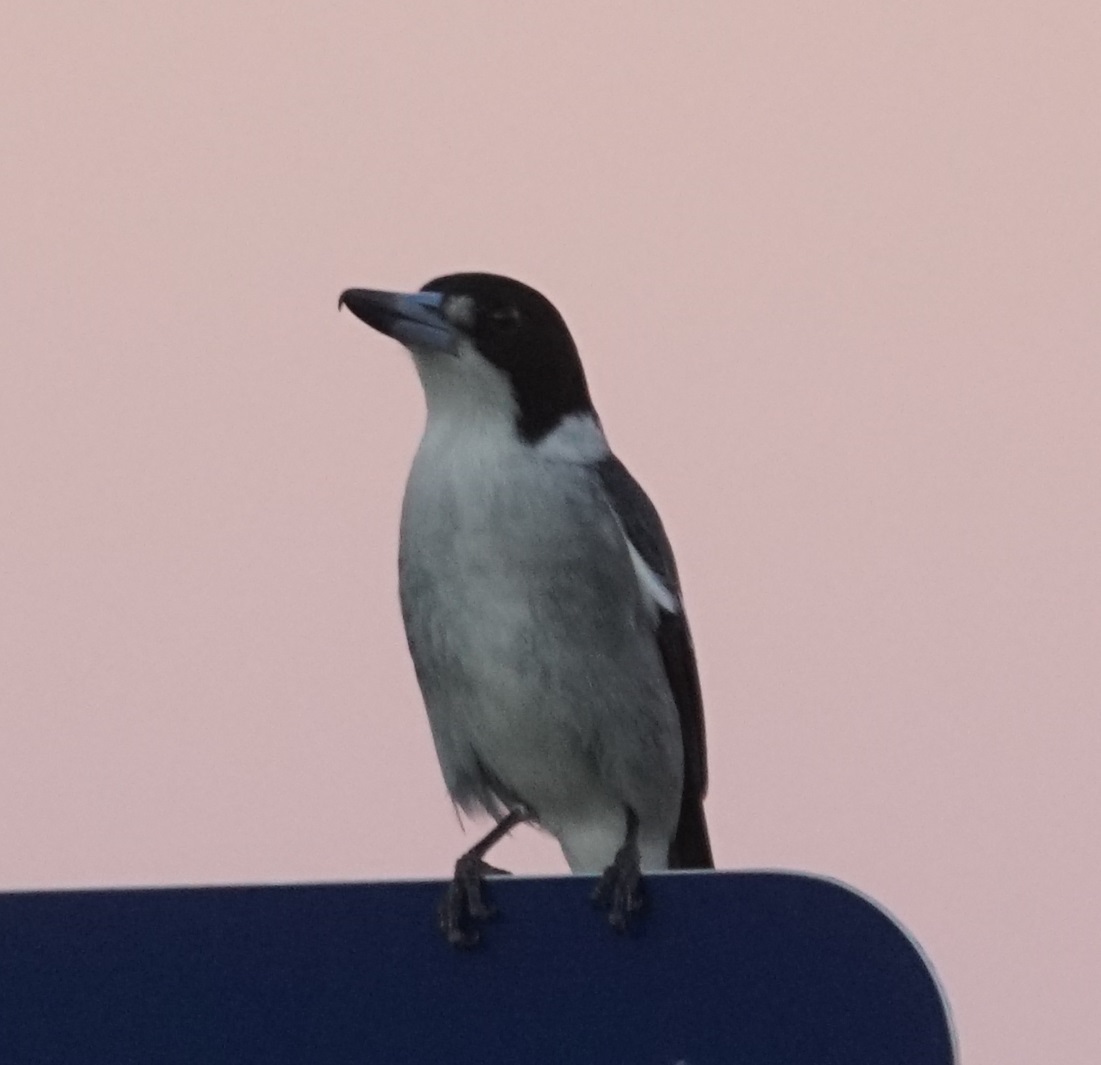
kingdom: Animalia
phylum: Chordata
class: Aves
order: Passeriformes
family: Cracticidae
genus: Cracticus
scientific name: Cracticus torquatus
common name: Grey butcherbird
